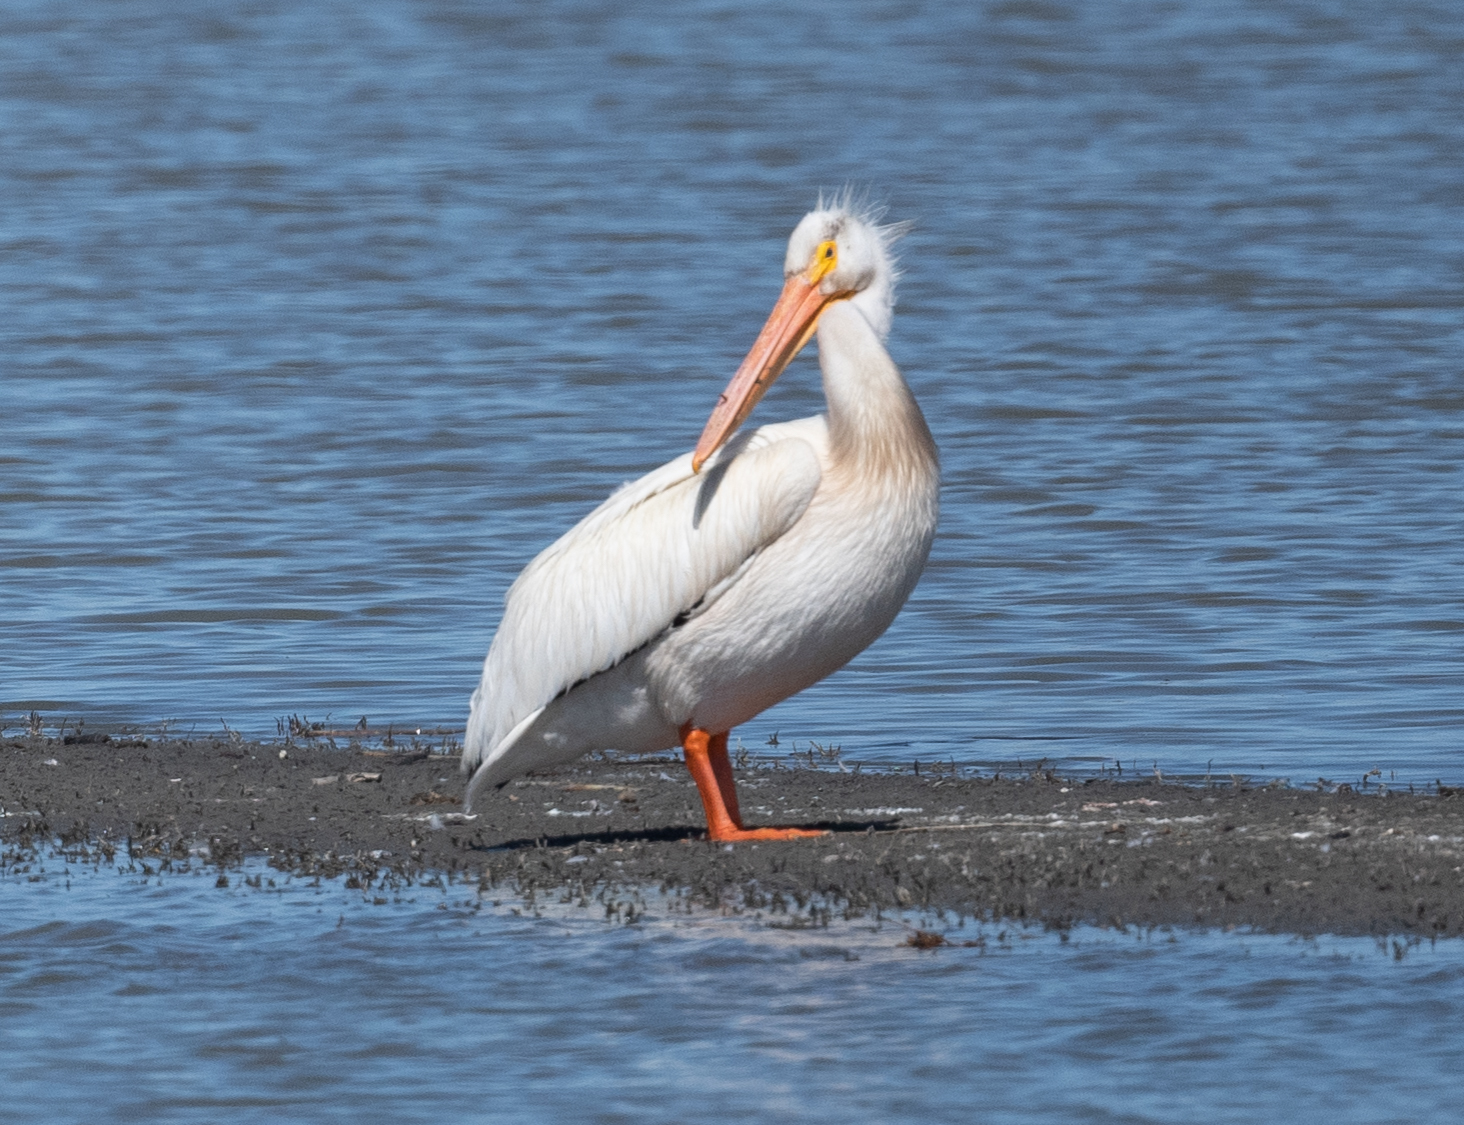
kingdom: Animalia
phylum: Chordata
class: Aves
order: Pelecaniformes
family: Pelecanidae
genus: Pelecanus
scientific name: Pelecanus erythrorhynchos
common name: American white pelican
